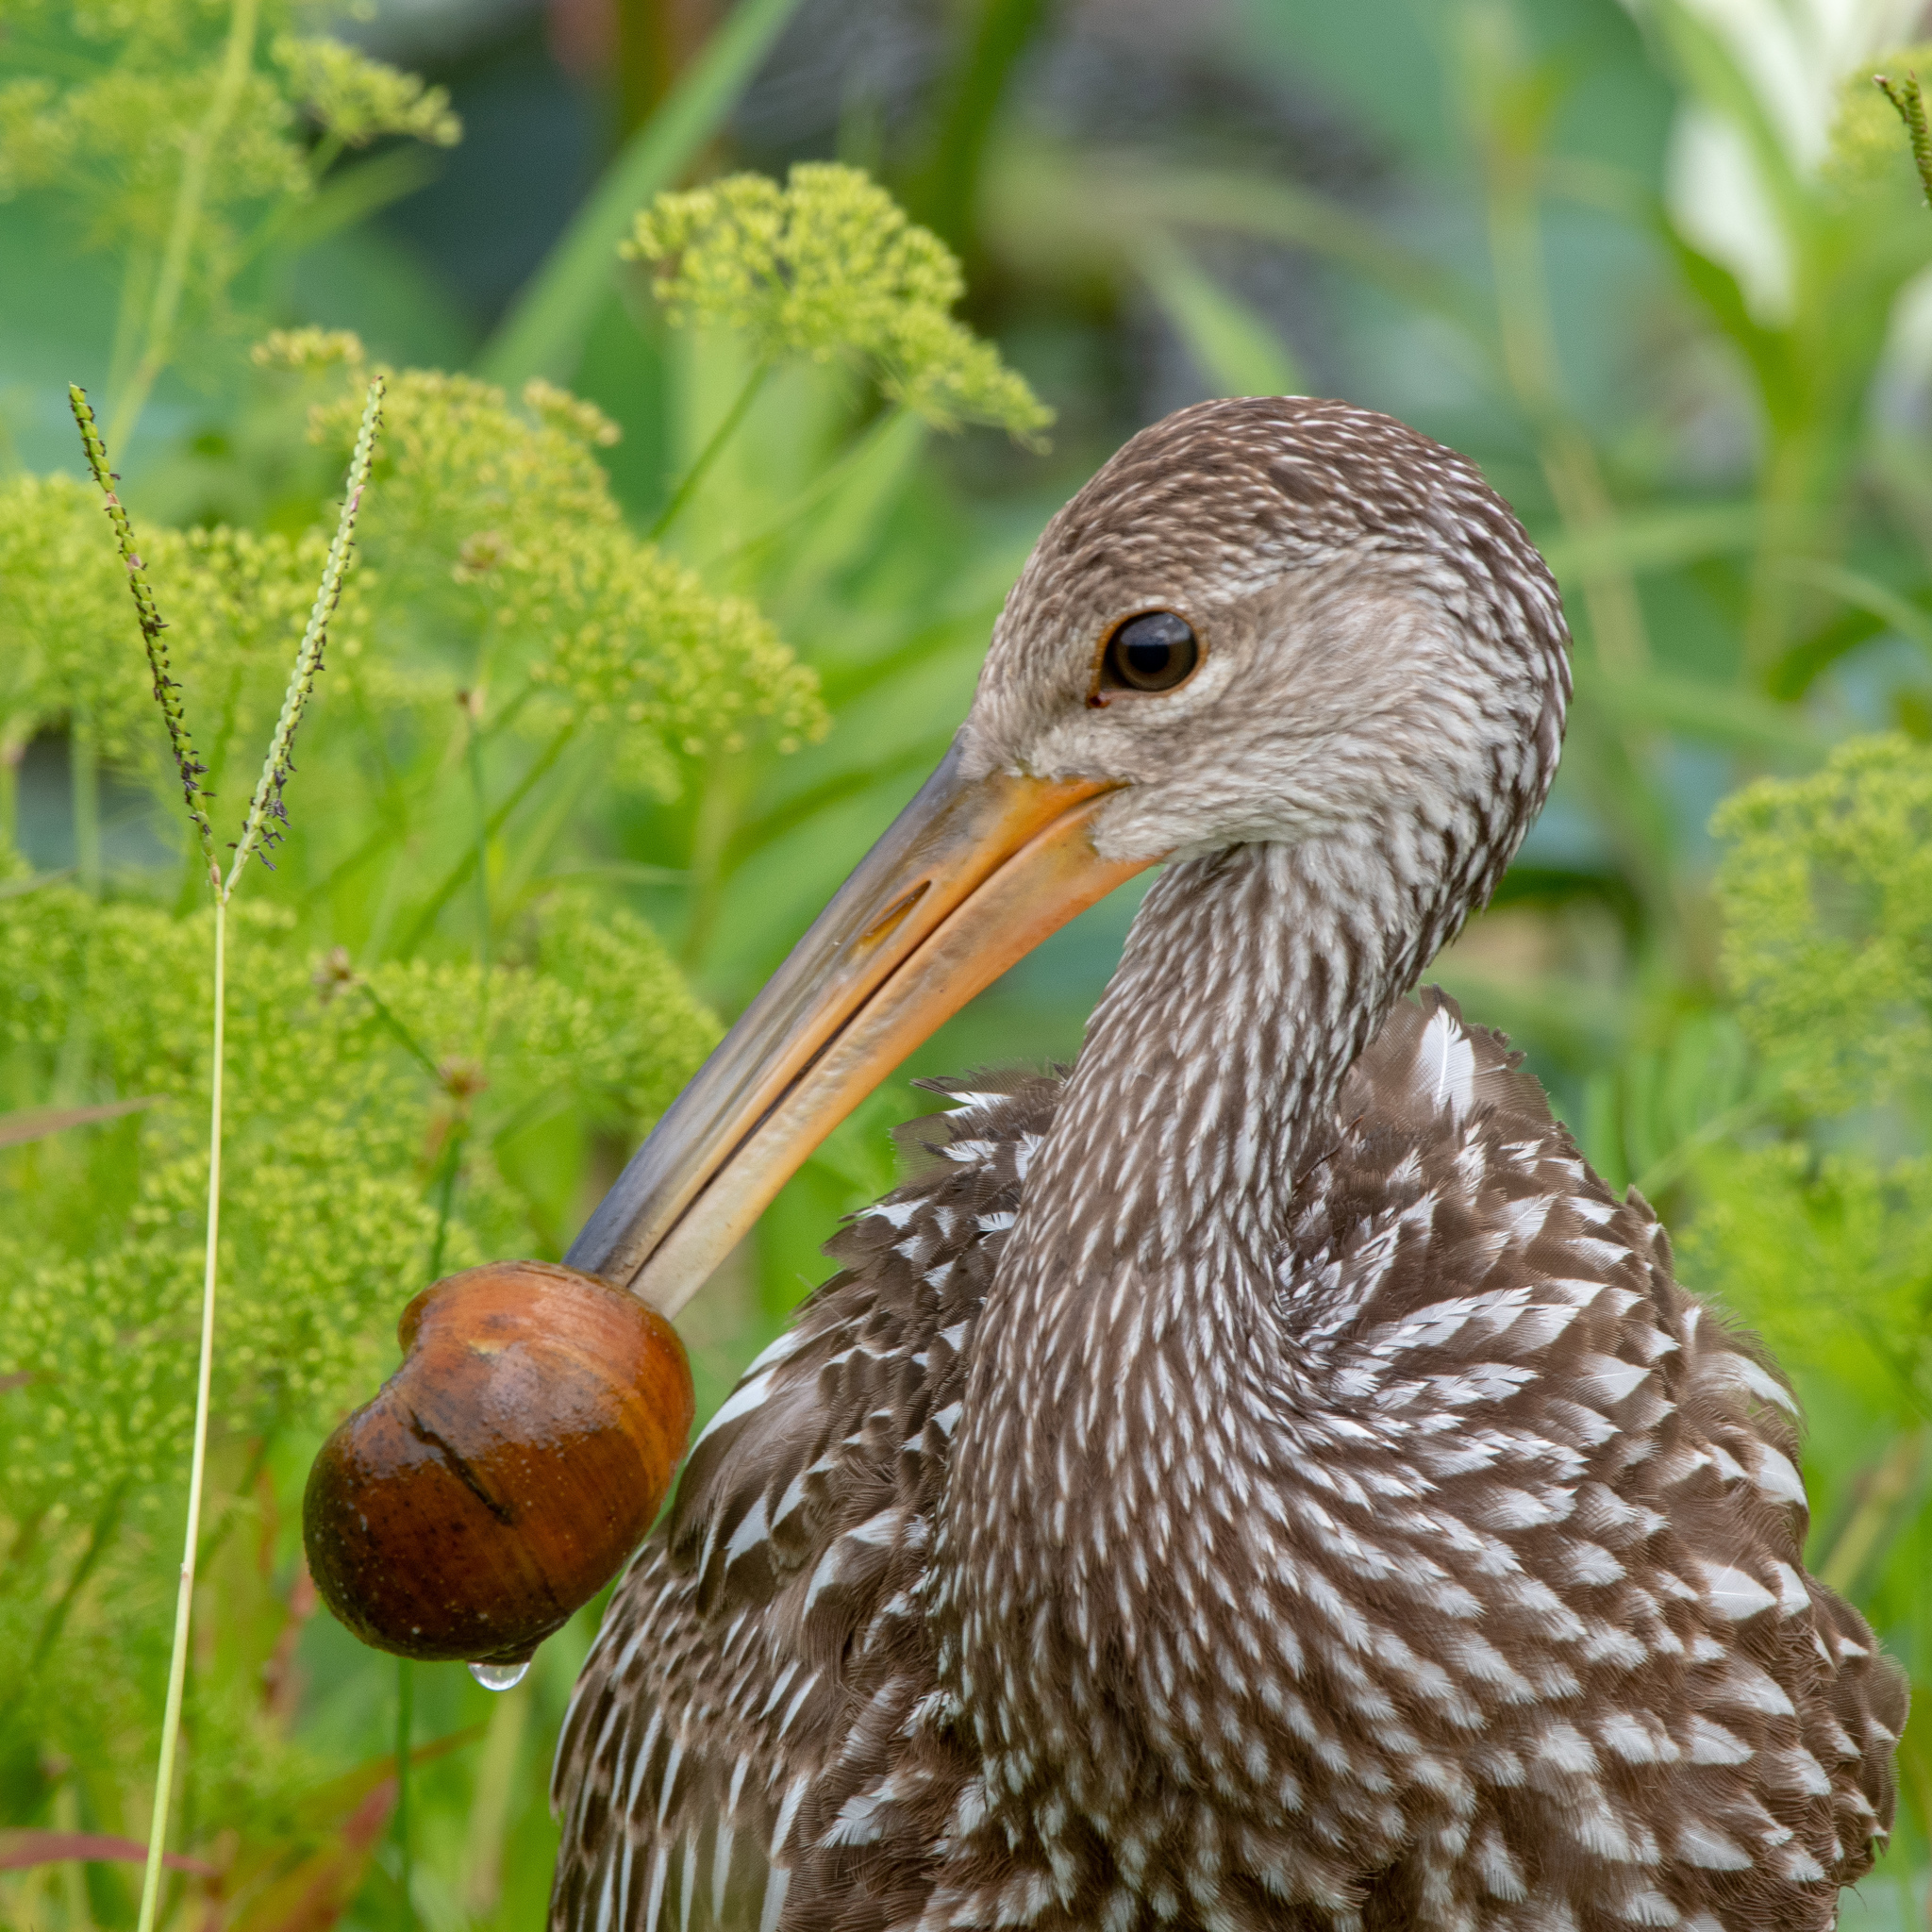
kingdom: Animalia
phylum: Chordata
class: Aves
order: Gruiformes
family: Aramidae
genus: Aramus
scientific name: Aramus guarauna
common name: Limpkin
